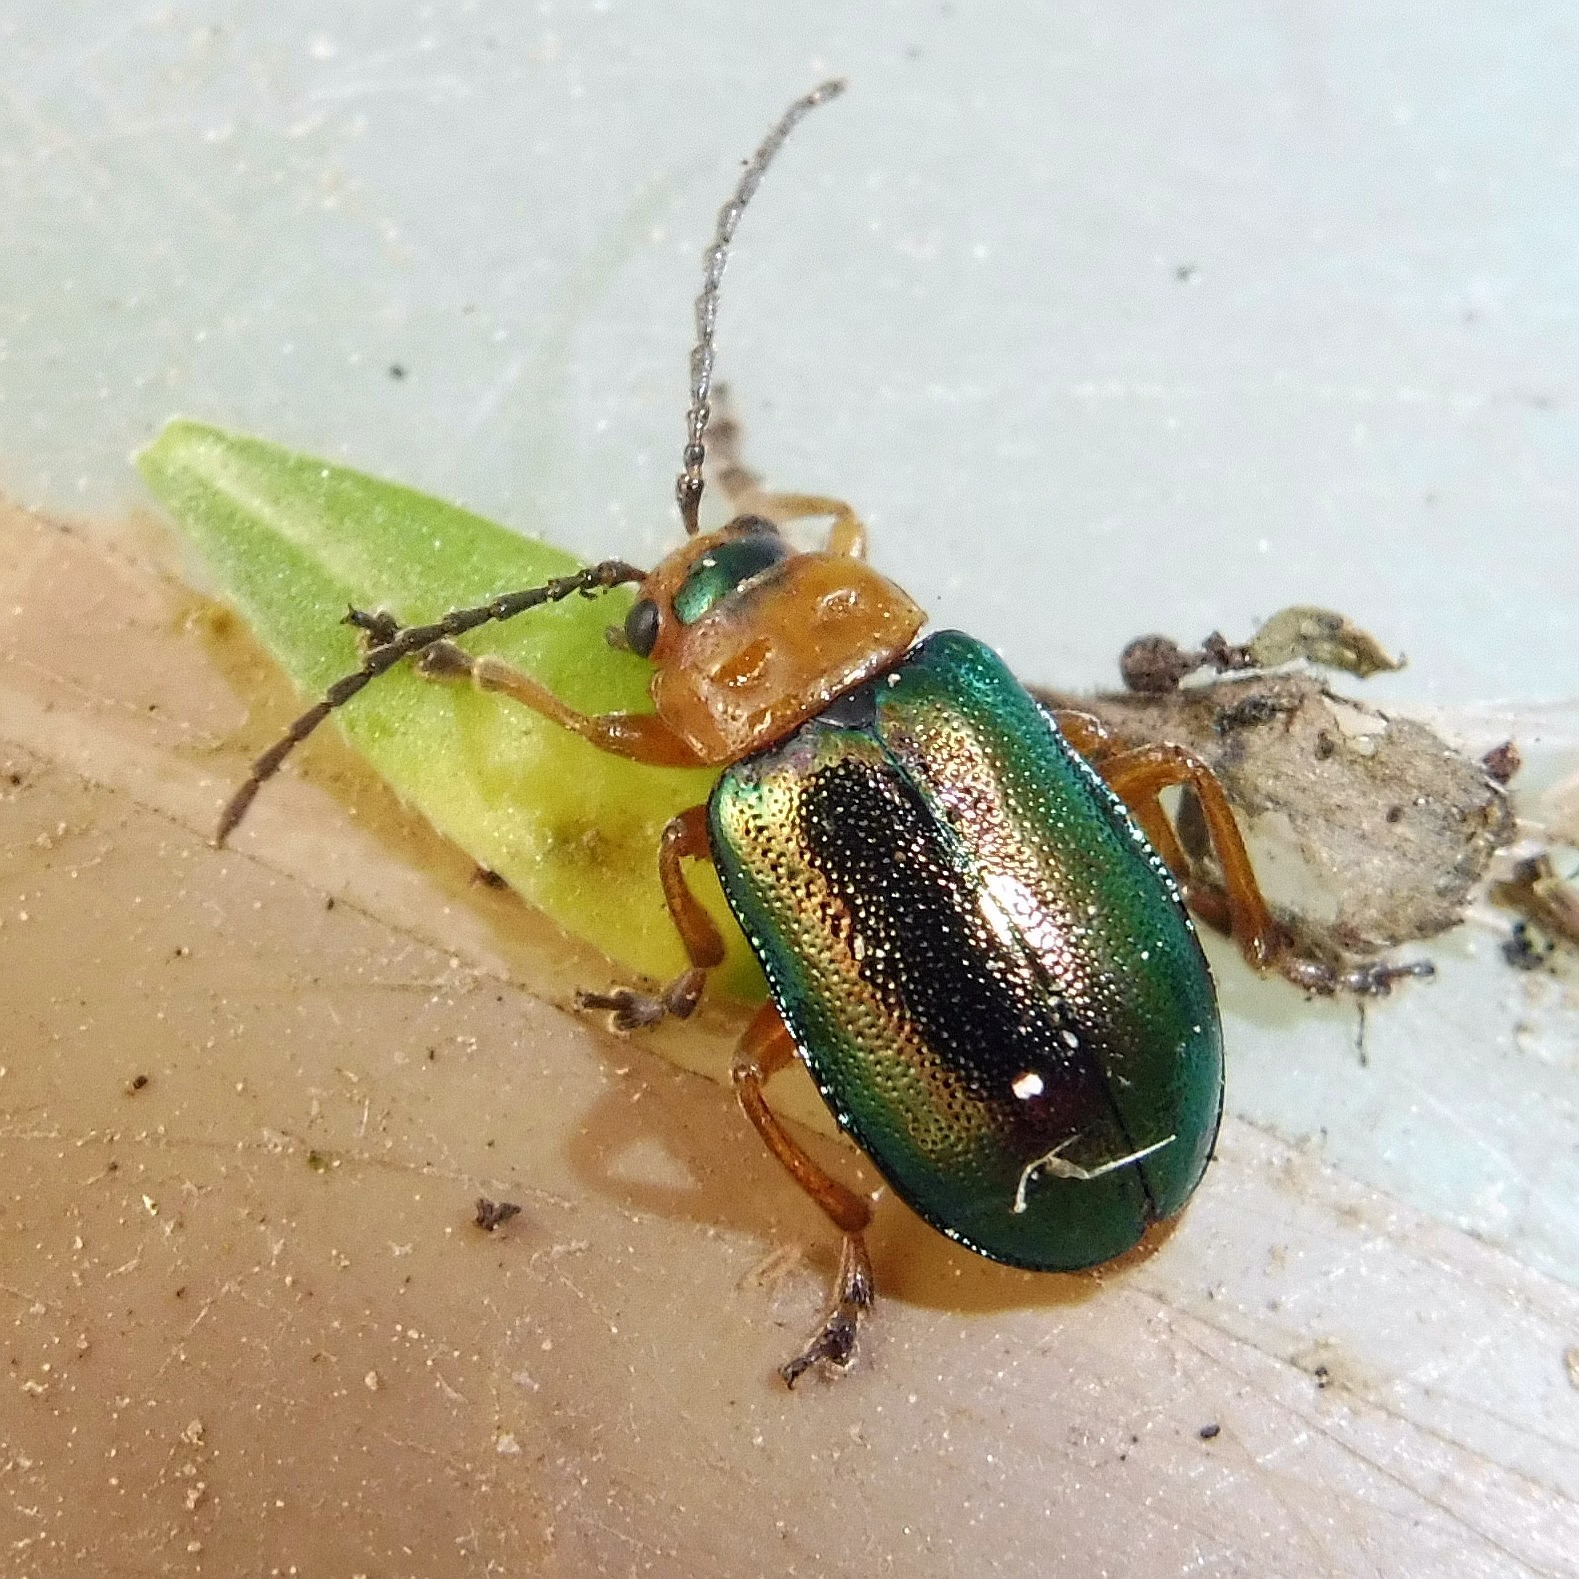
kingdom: Animalia
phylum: Arthropoda
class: Insecta
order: Coleoptera
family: Chrysomelidae
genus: Sermylassa
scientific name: Sermylassa halensis
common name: Leaf beetle
